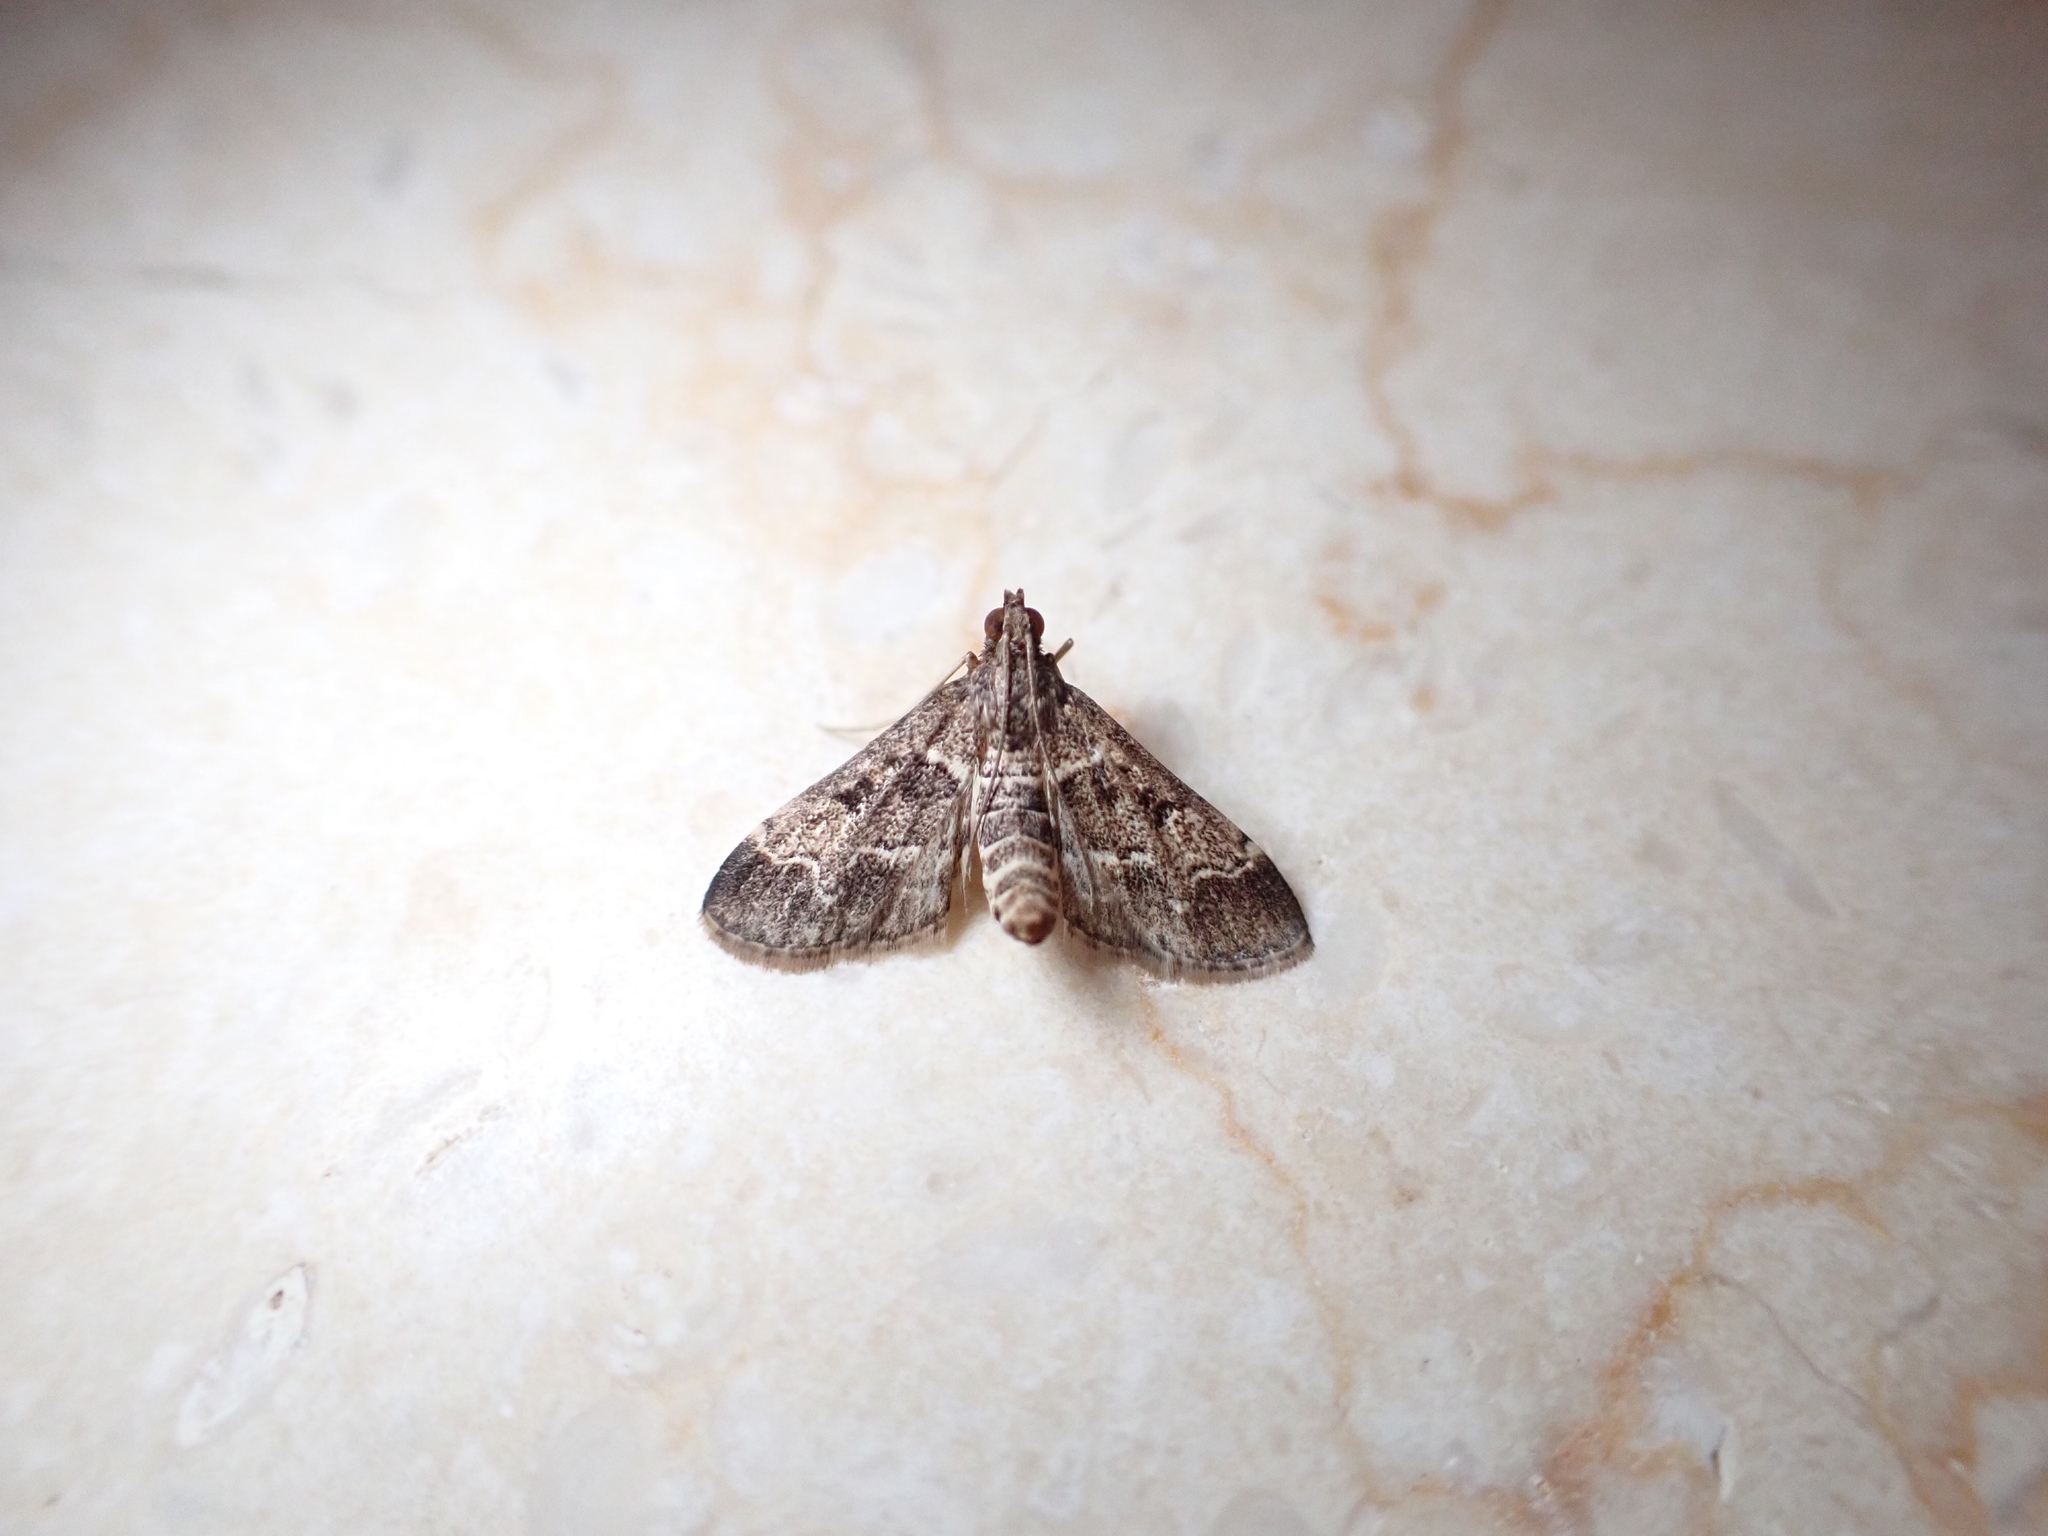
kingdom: Animalia
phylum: Arthropoda
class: Insecta
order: Lepidoptera
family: Crambidae
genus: Duponchelia
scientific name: Duponchelia fovealis
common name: Crambid moth
